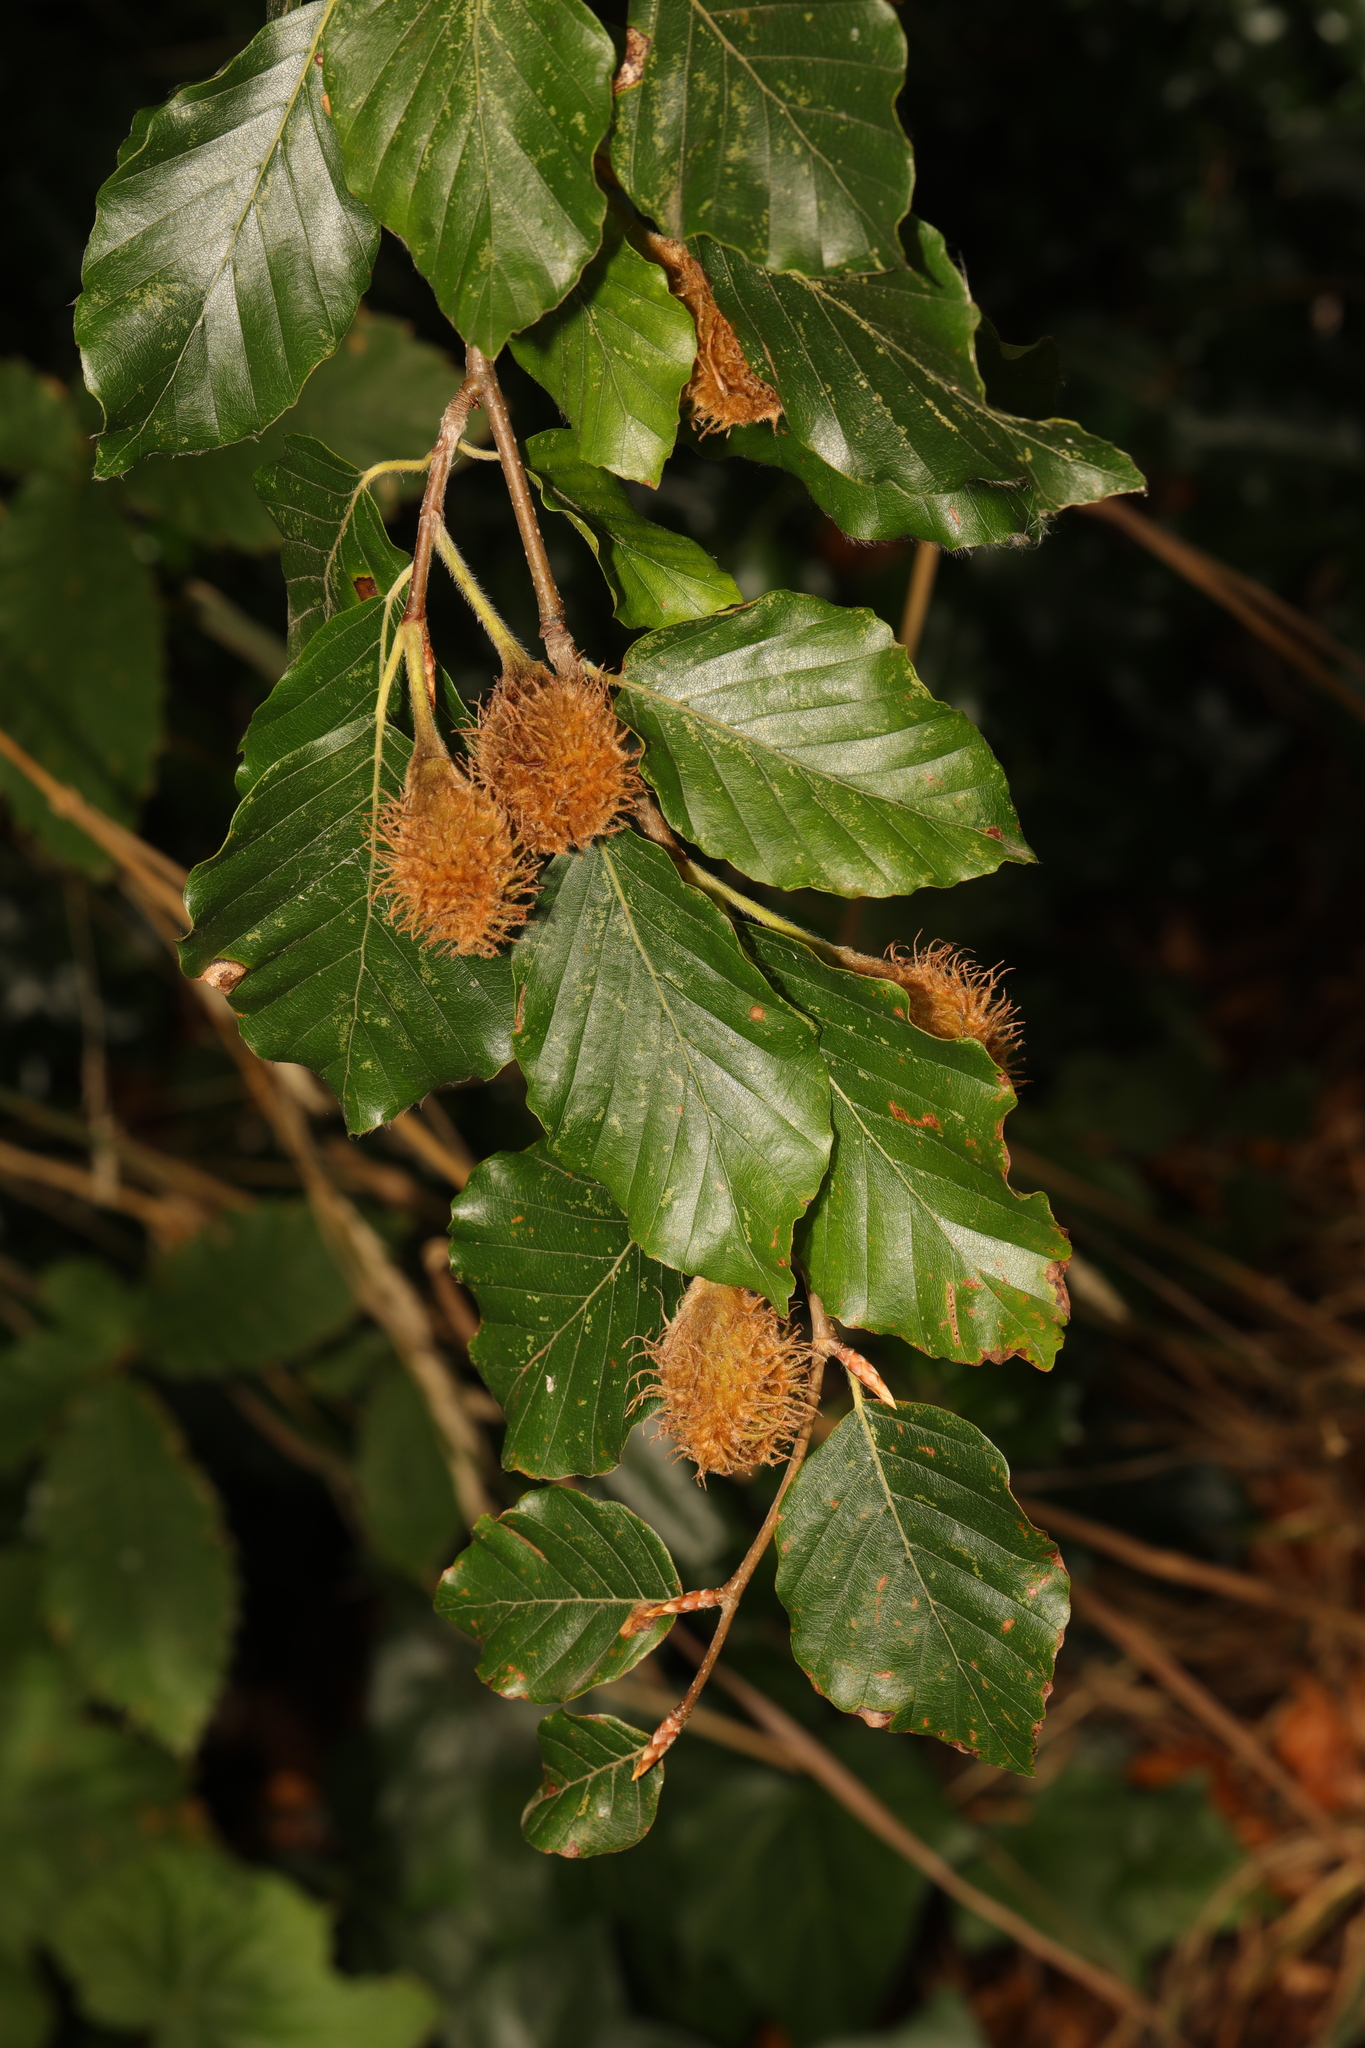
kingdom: Plantae
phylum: Tracheophyta
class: Magnoliopsida
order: Fagales
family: Fagaceae
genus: Fagus
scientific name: Fagus sylvatica
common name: Beech
